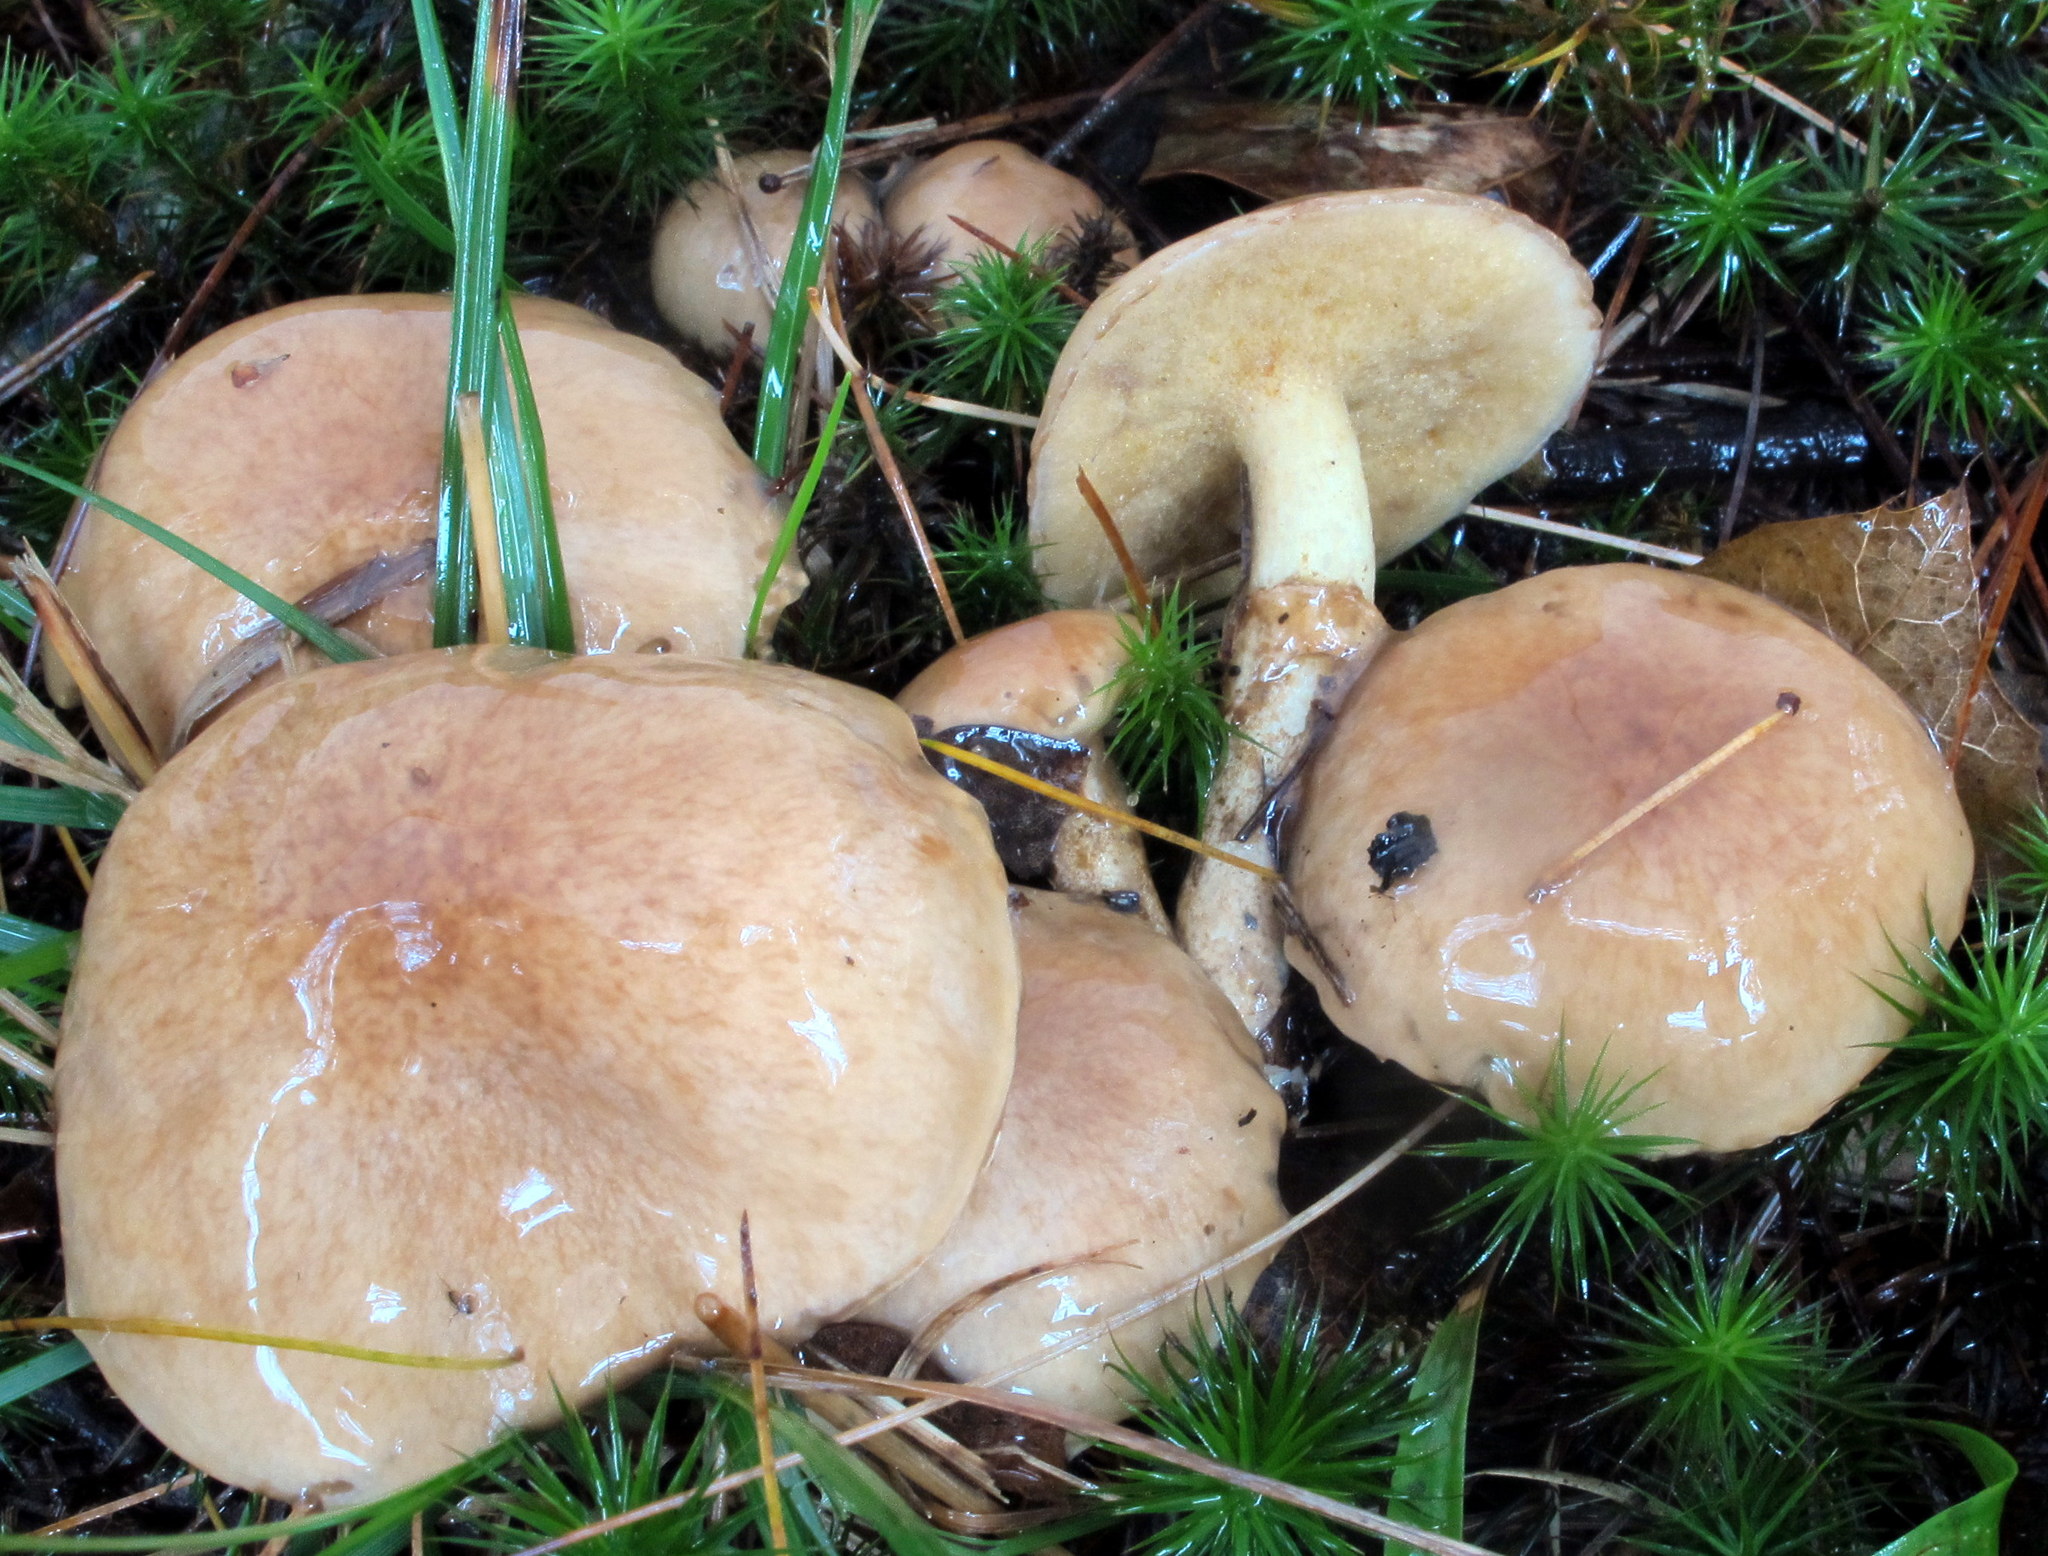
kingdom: Fungi
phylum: Basidiomycota
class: Agaricomycetes
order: Boletales
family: Suillaceae
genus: Suillus
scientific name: Suillus acidus
